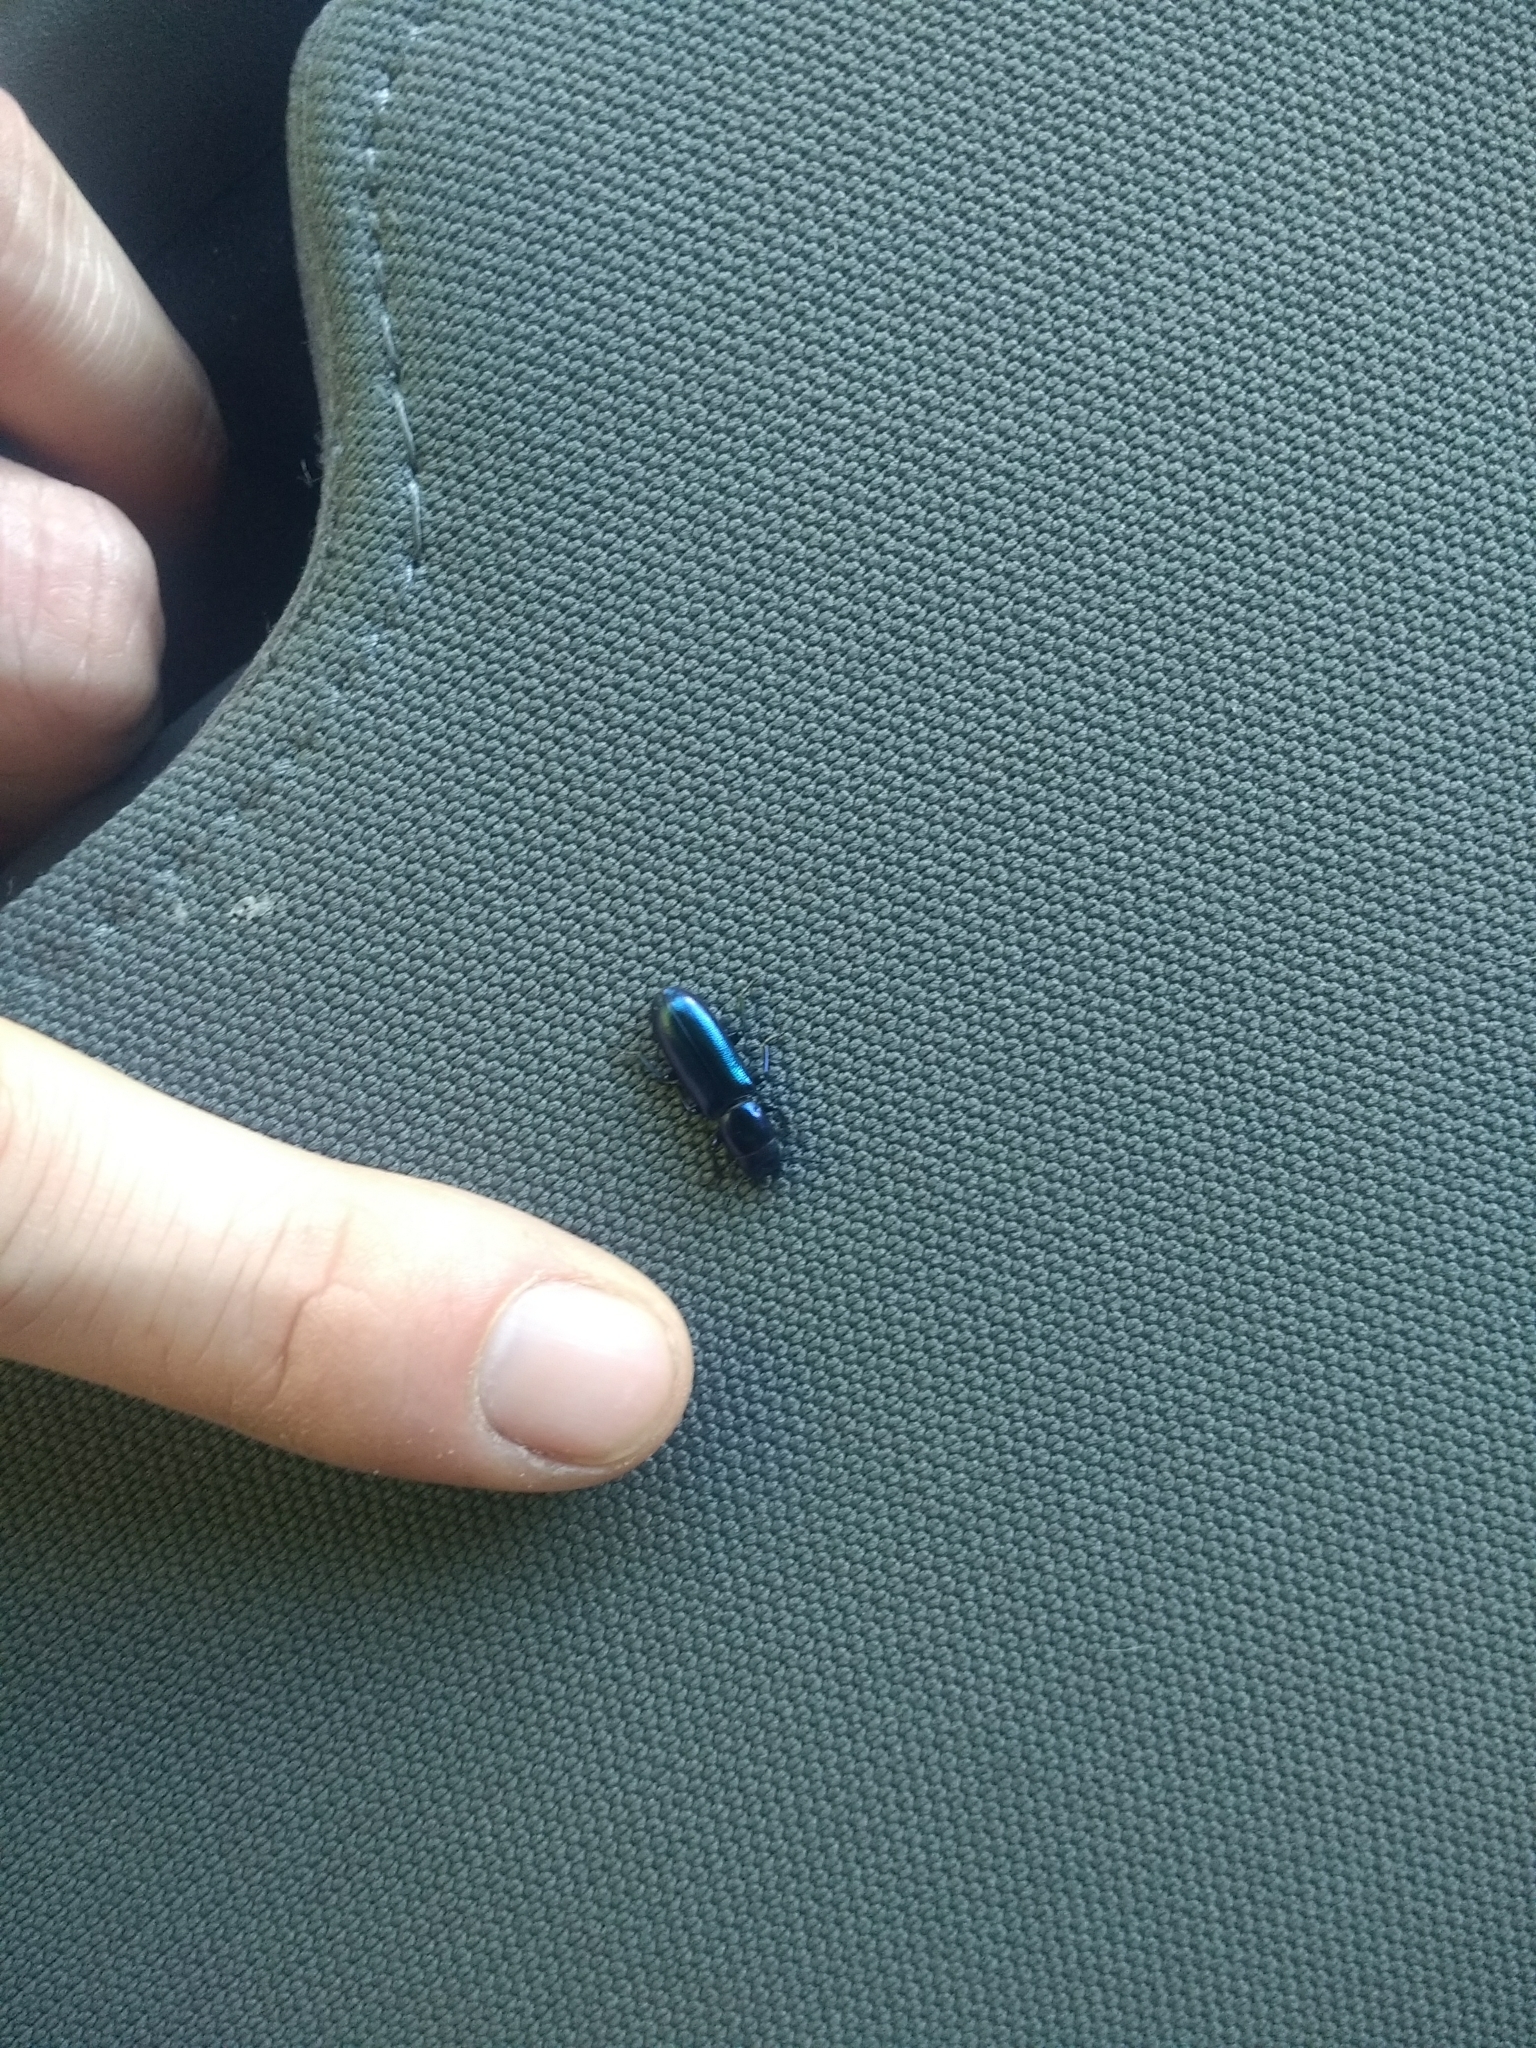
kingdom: Animalia
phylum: Arthropoda
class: Insecta
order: Coleoptera
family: Trogossitidae
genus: Temnoscheila
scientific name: Temnoscheila chlorodia
